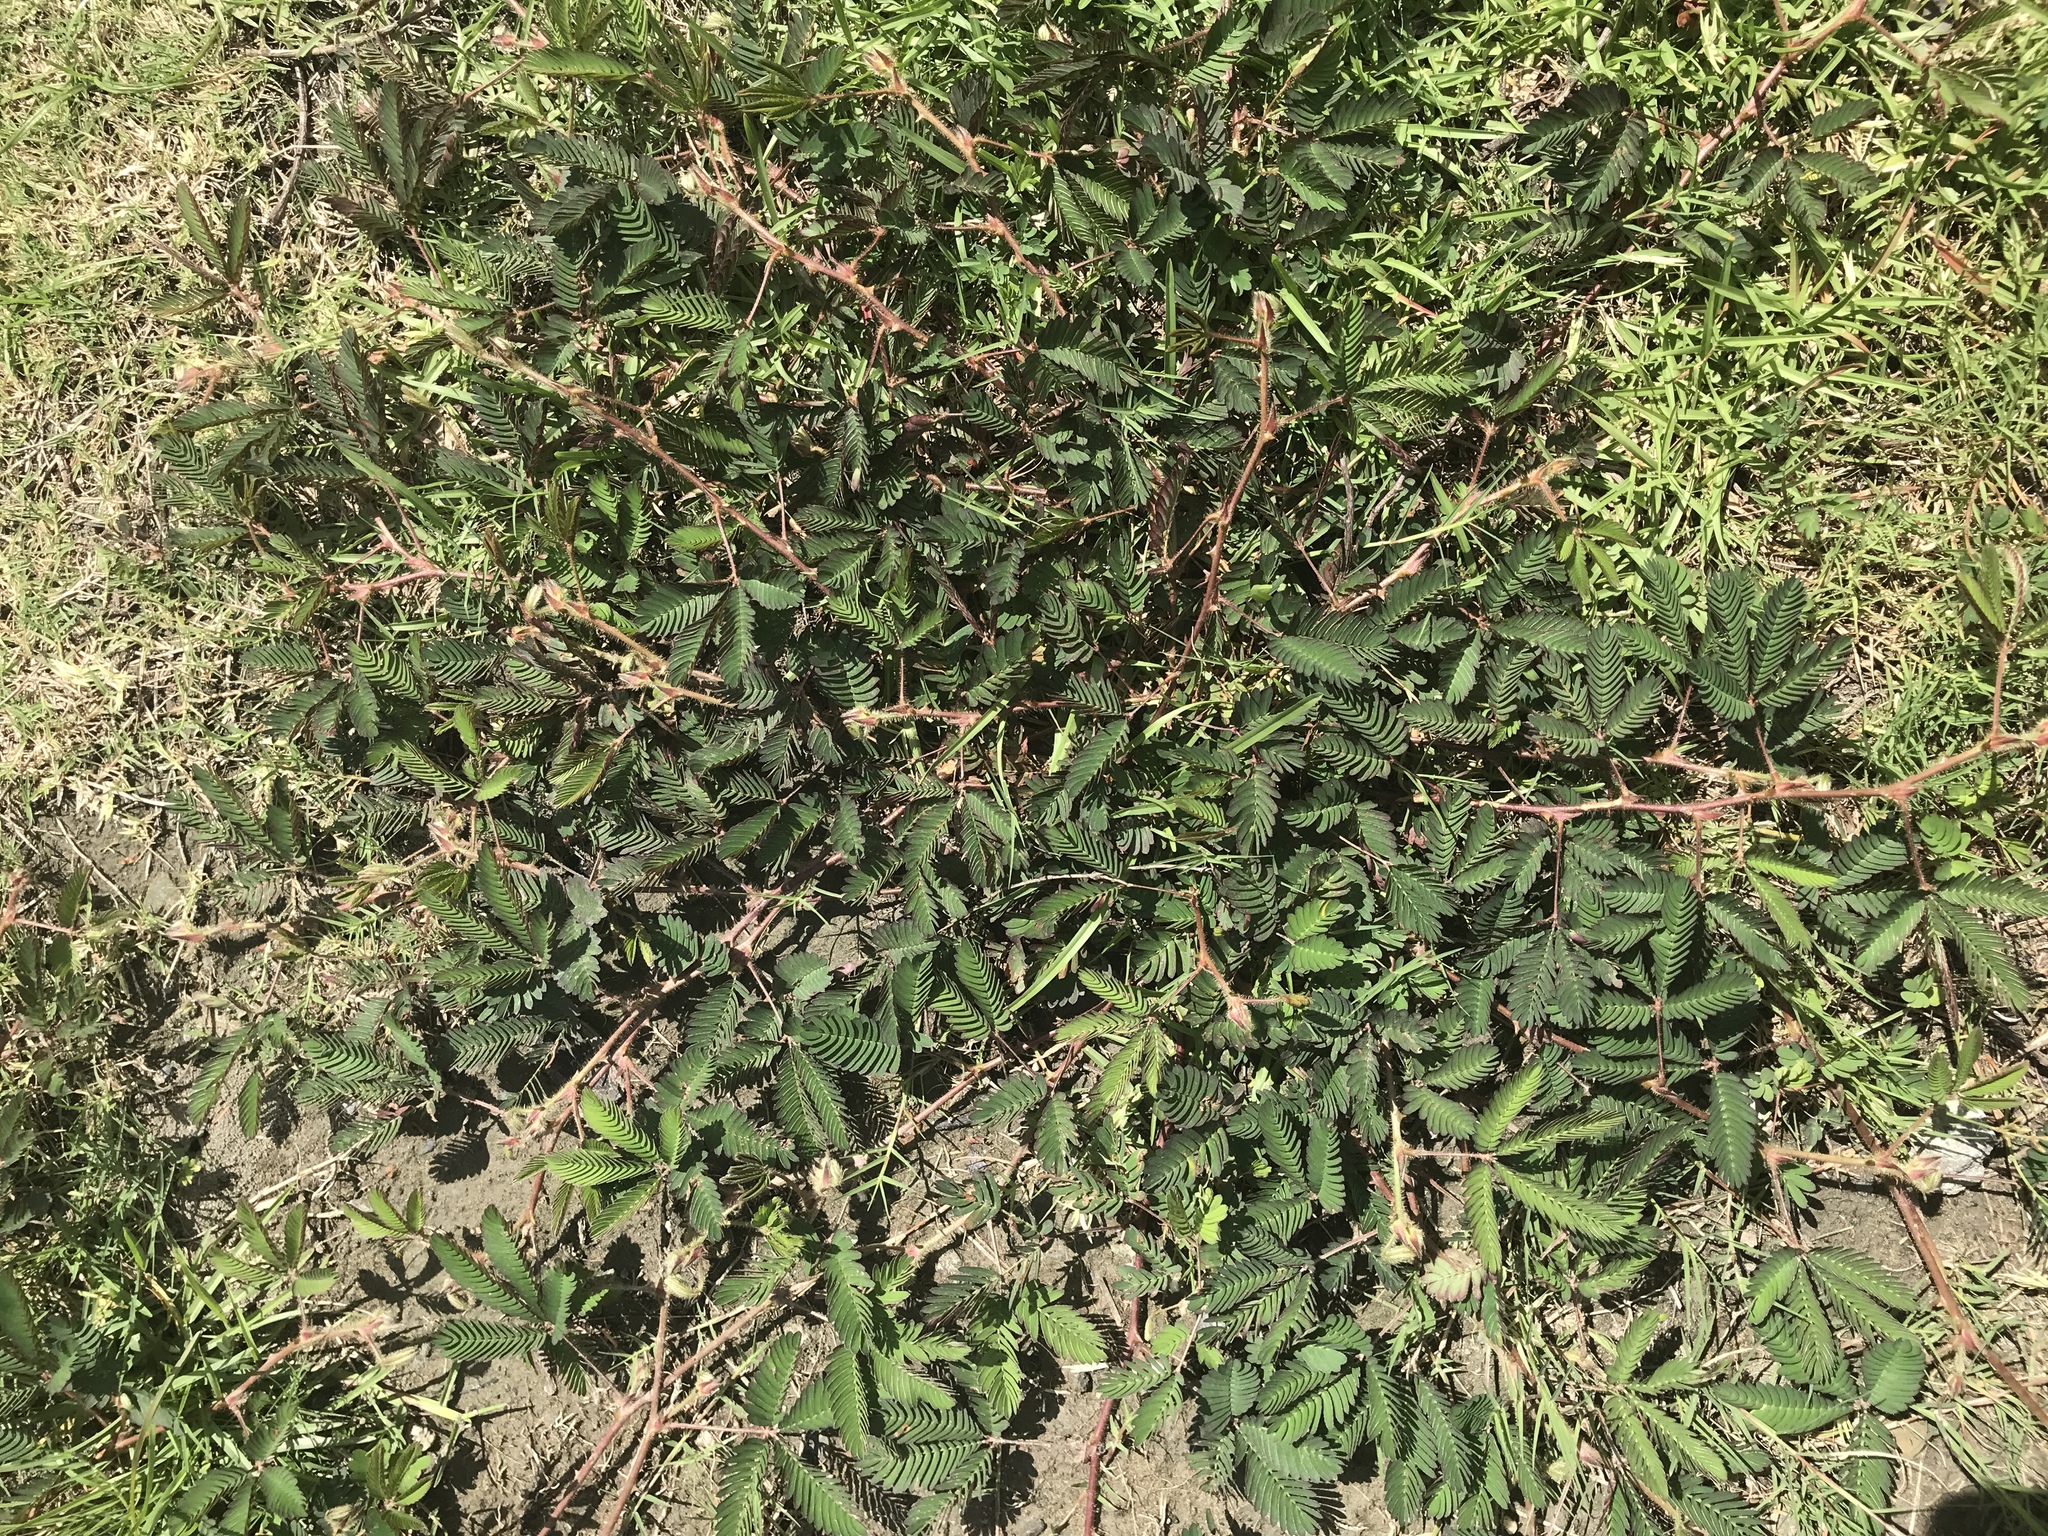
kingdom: Plantae
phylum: Tracheophyta
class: Magnoliopsida
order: Fabales
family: Fabaceae
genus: Mimosa
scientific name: Mimosa pudica
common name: Sensitive plant
